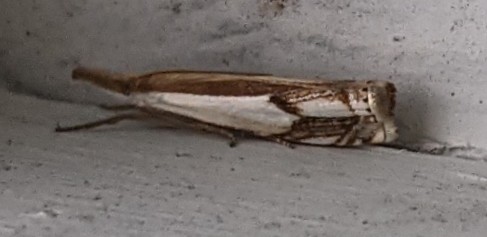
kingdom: Animalia
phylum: Arthropoda
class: Insecta
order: Lepidoptera
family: Crambidae
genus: Crambus
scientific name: Crambus agitatellus
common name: Double-banded grass-veneer
